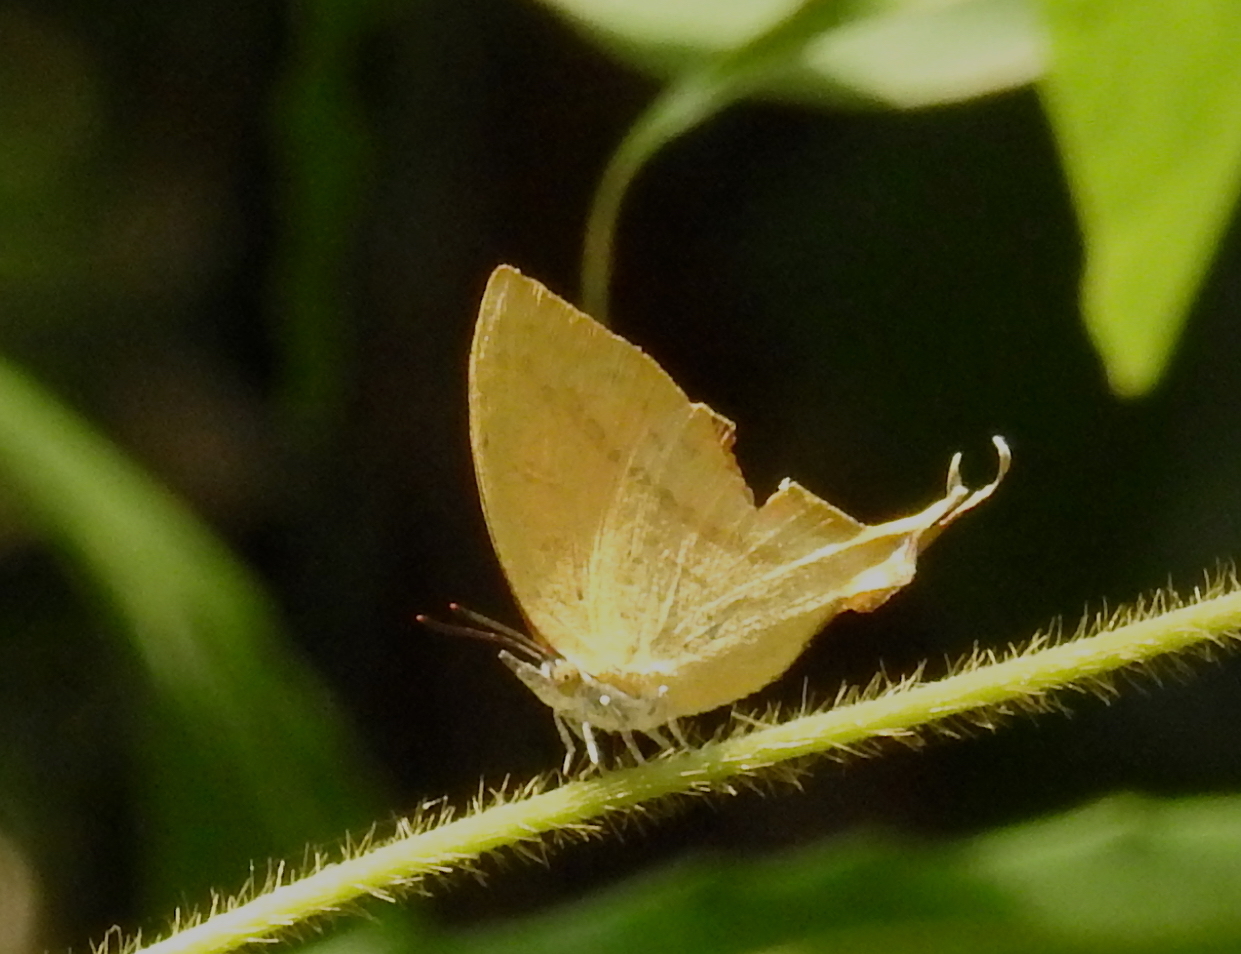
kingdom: Animalia
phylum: Arthropoda
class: Insecta
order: Lepidoptera
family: Lycaenidae
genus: Loxura
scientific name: Loxura atymnus
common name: Common yamfly
